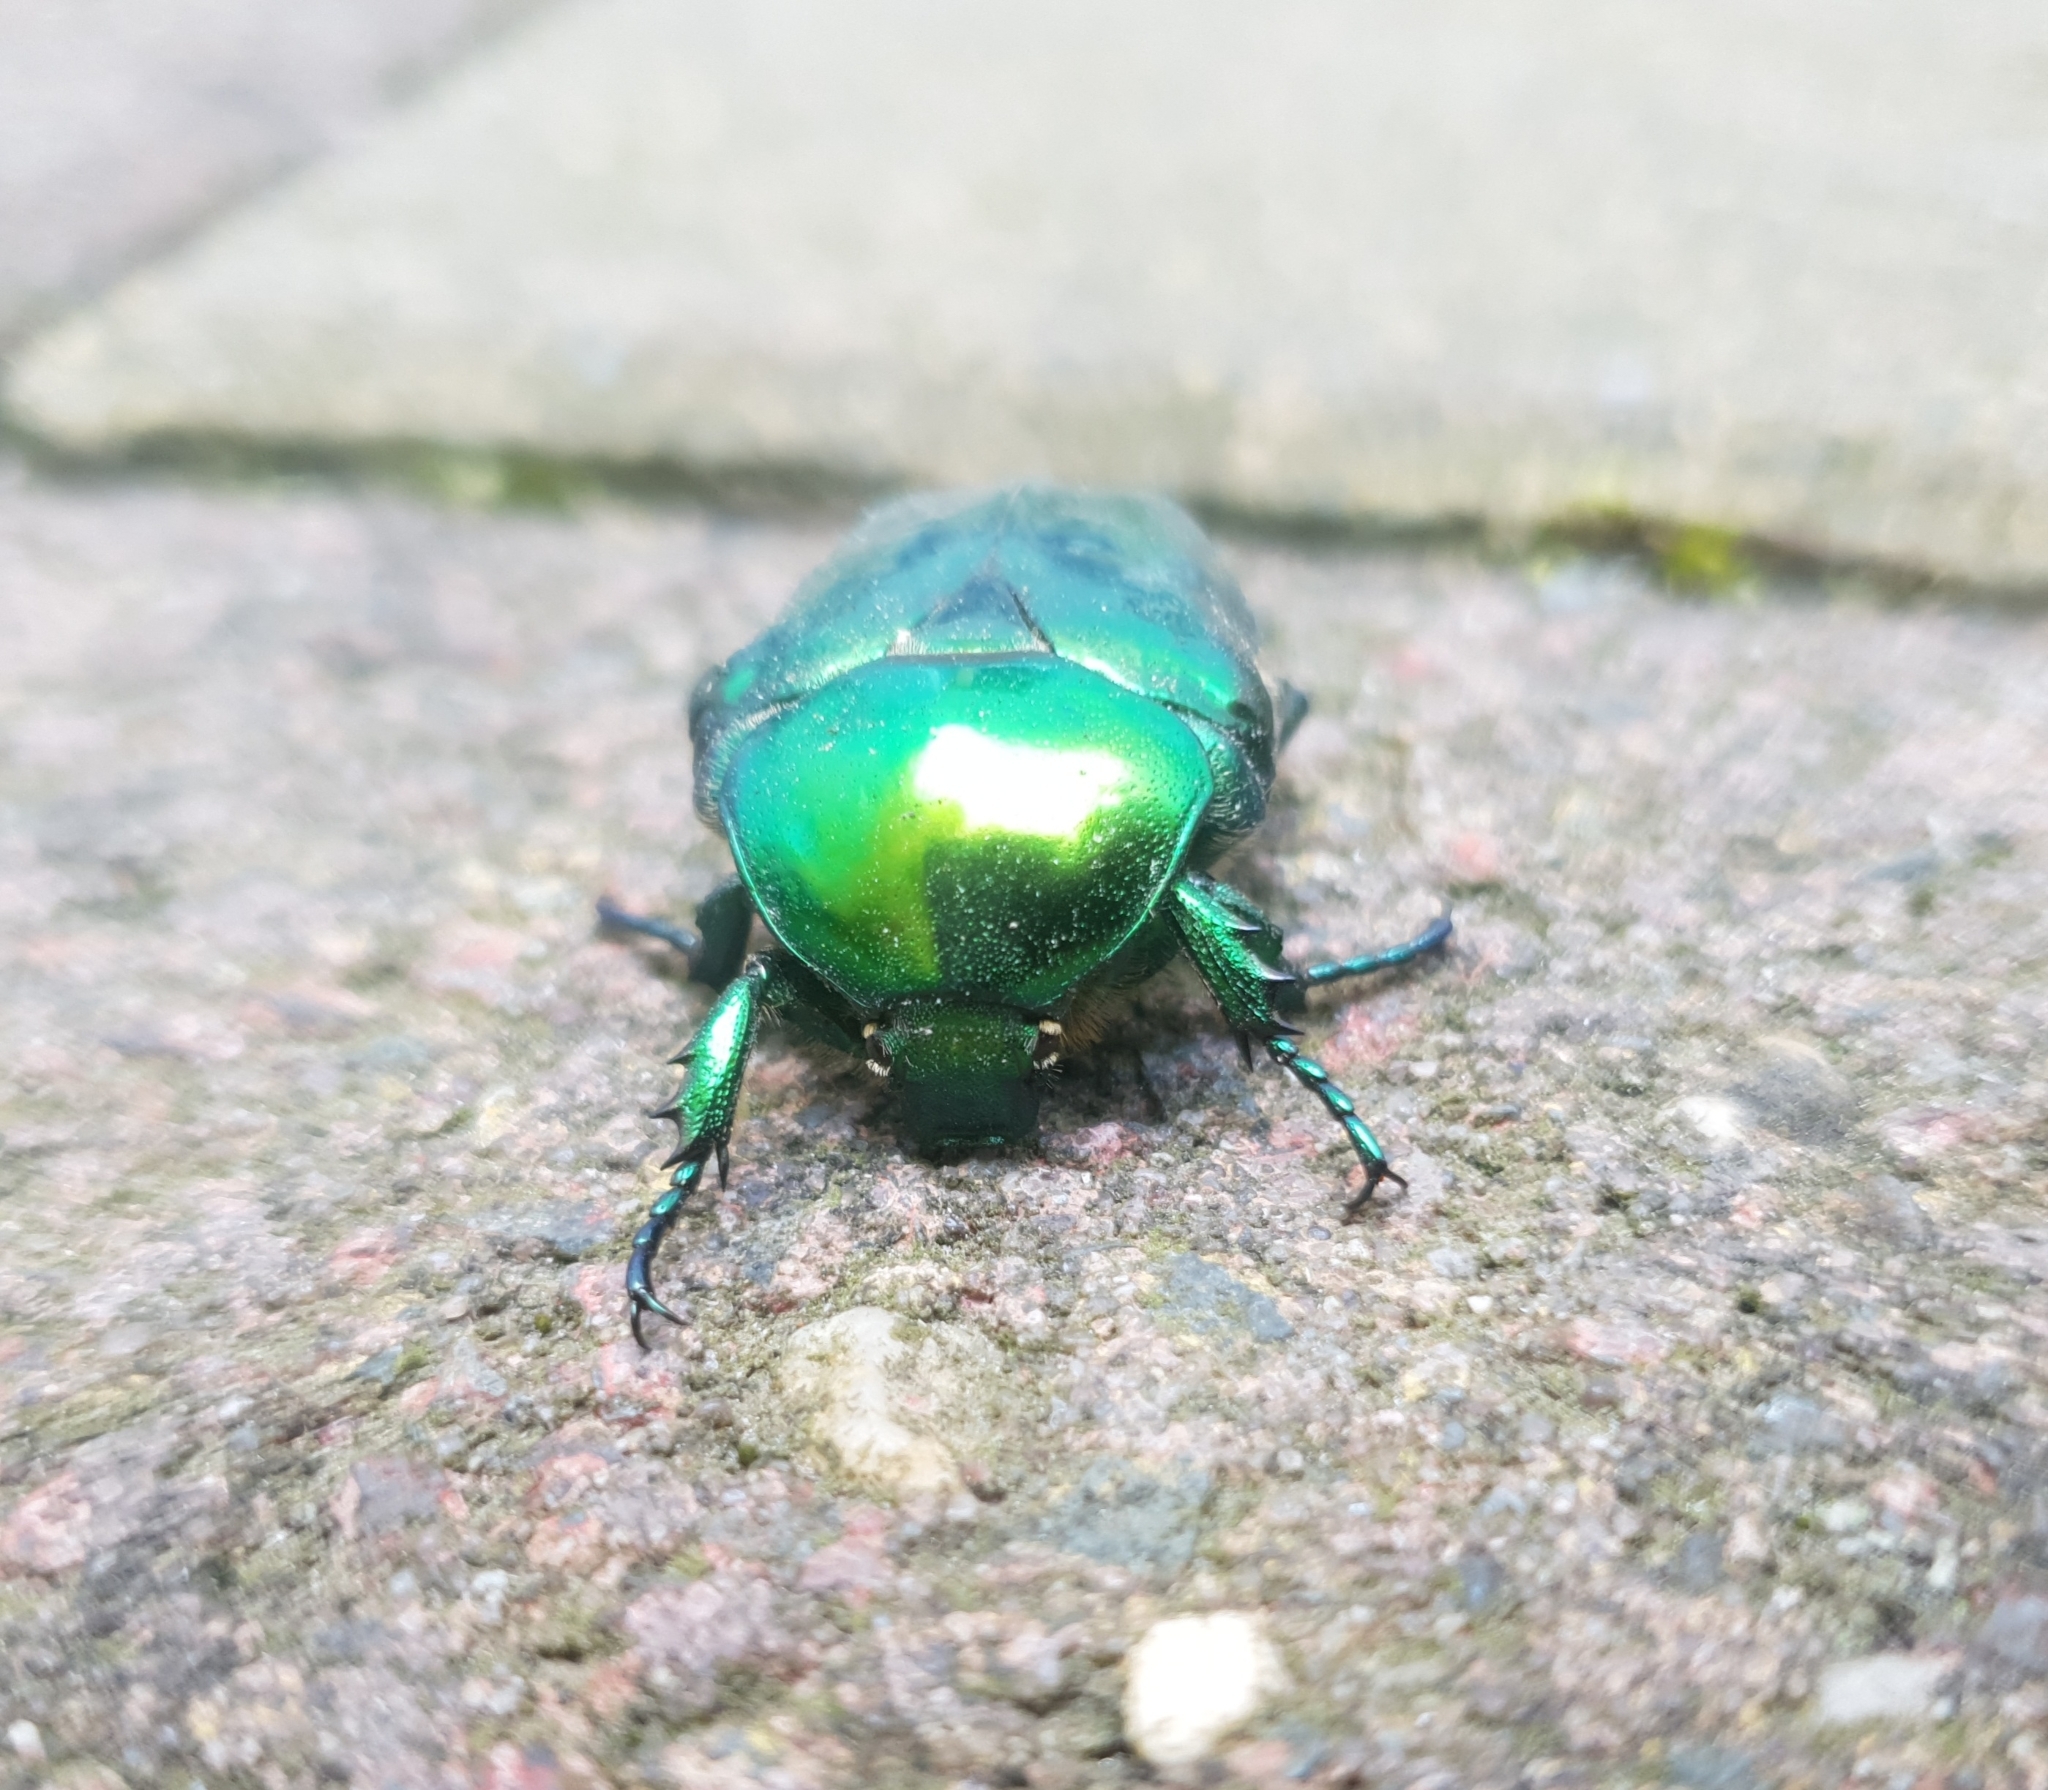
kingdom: Animalia
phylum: Arthropoda
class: Insecta
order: Coleoptera
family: Scarabaeidae
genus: Protaetia
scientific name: Protaetia speciosissima
